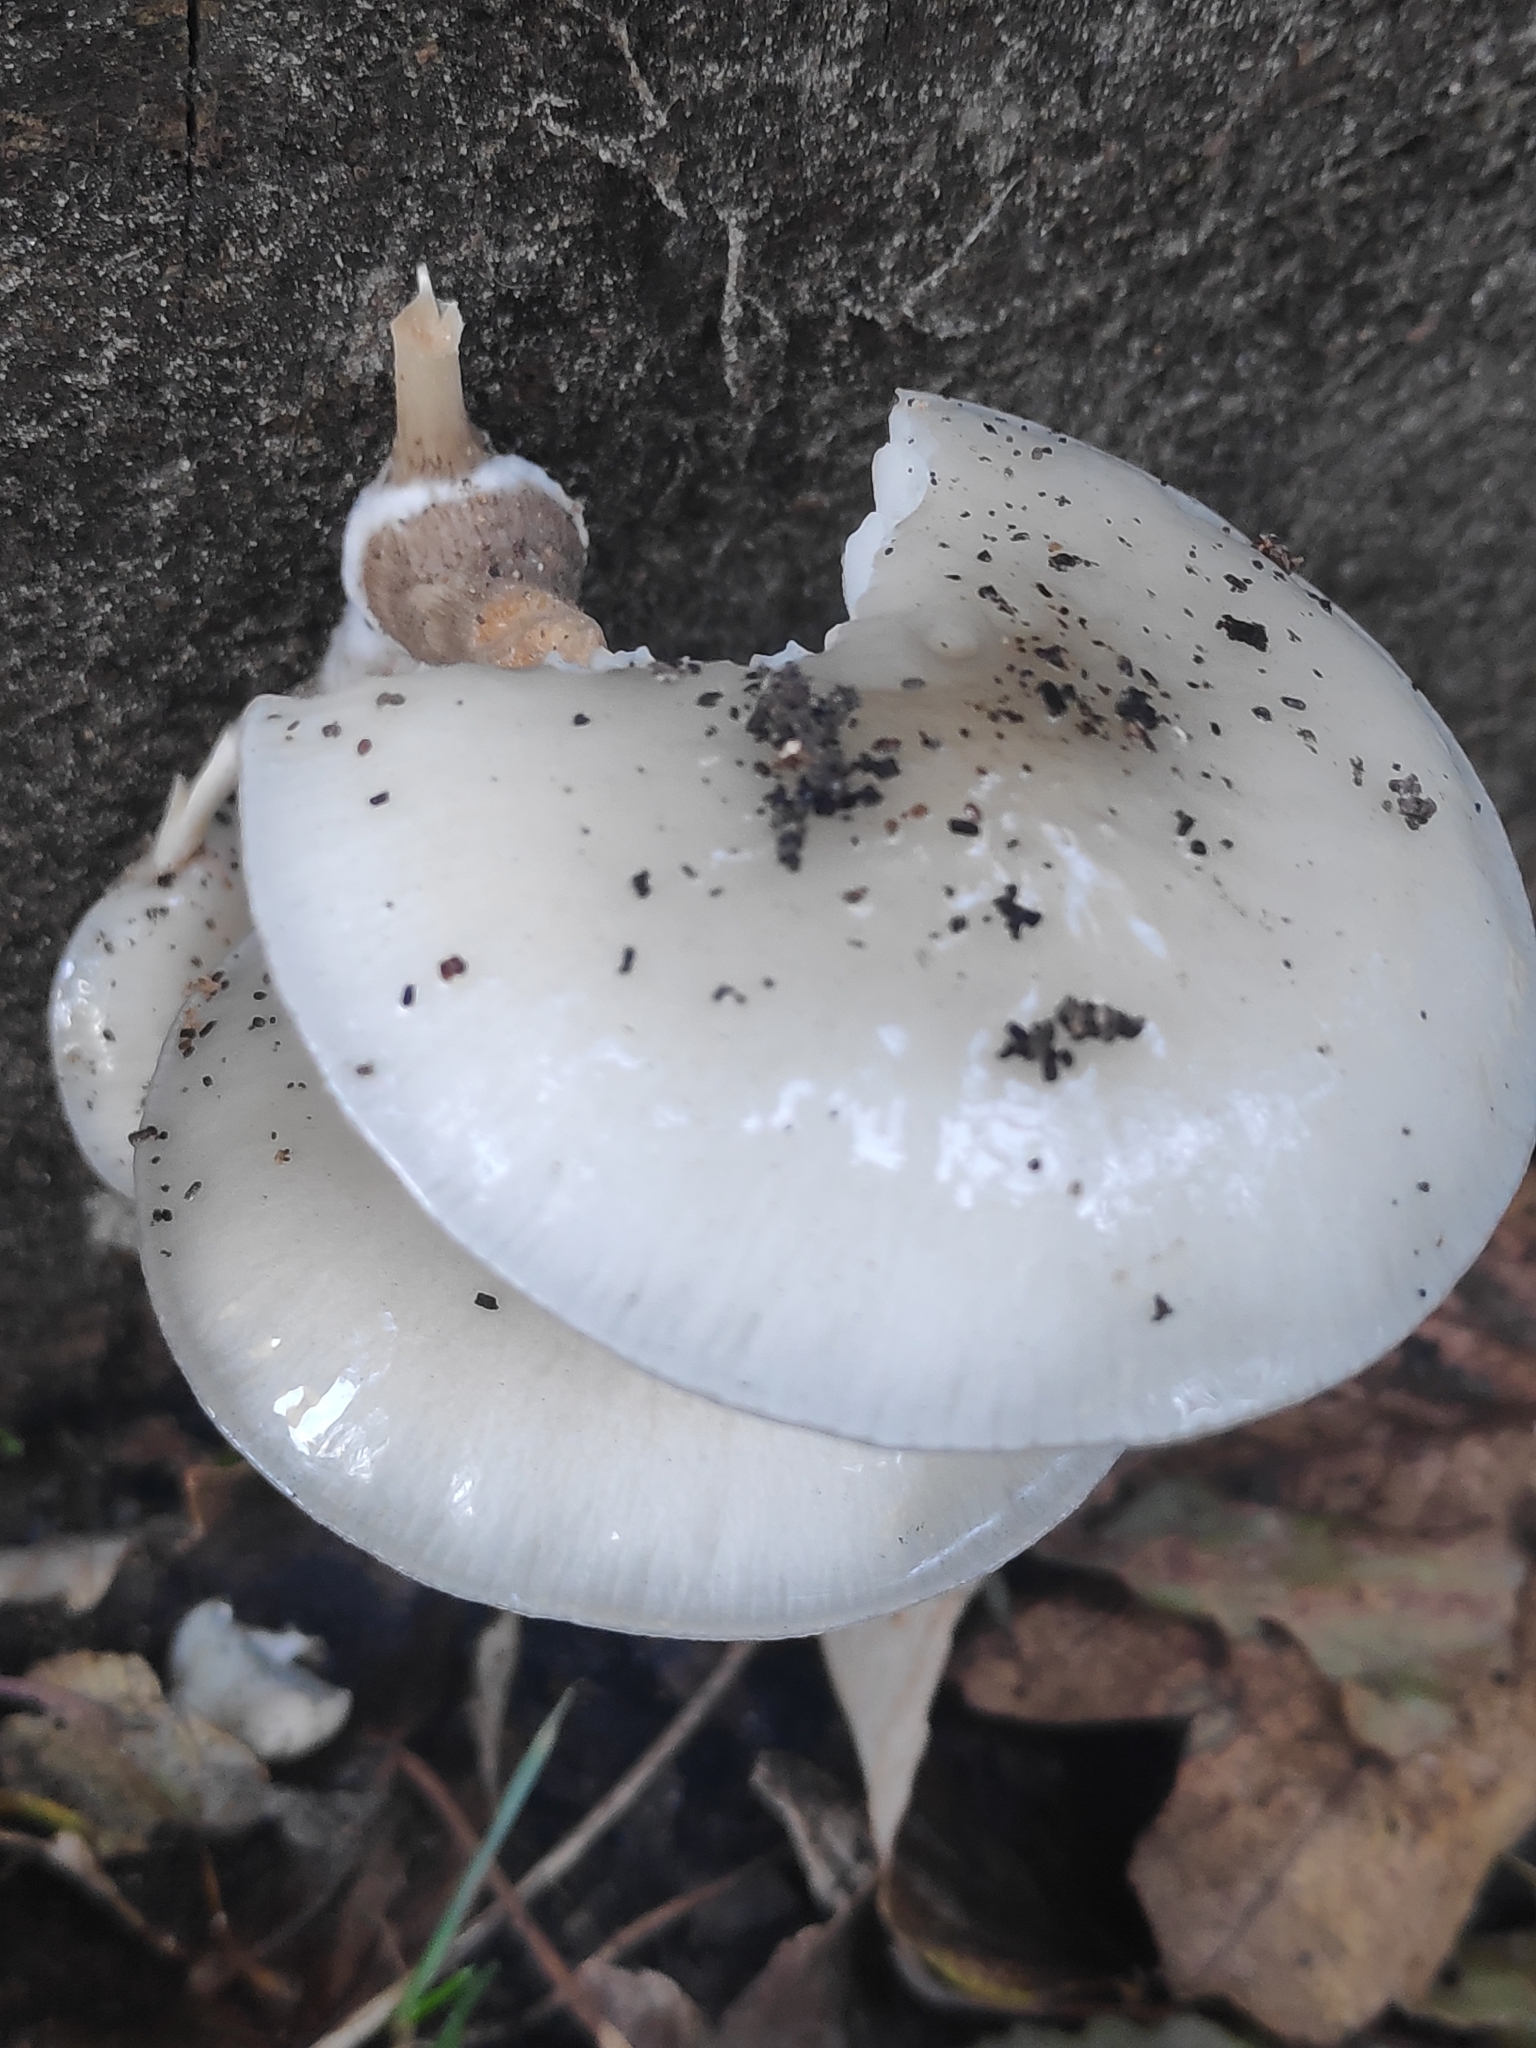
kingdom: Fungi
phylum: Basidiomycota
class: Agaricomycetes
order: Agaricales
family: Physalacriaceae
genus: Mucidula
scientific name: Mucidula mucida
